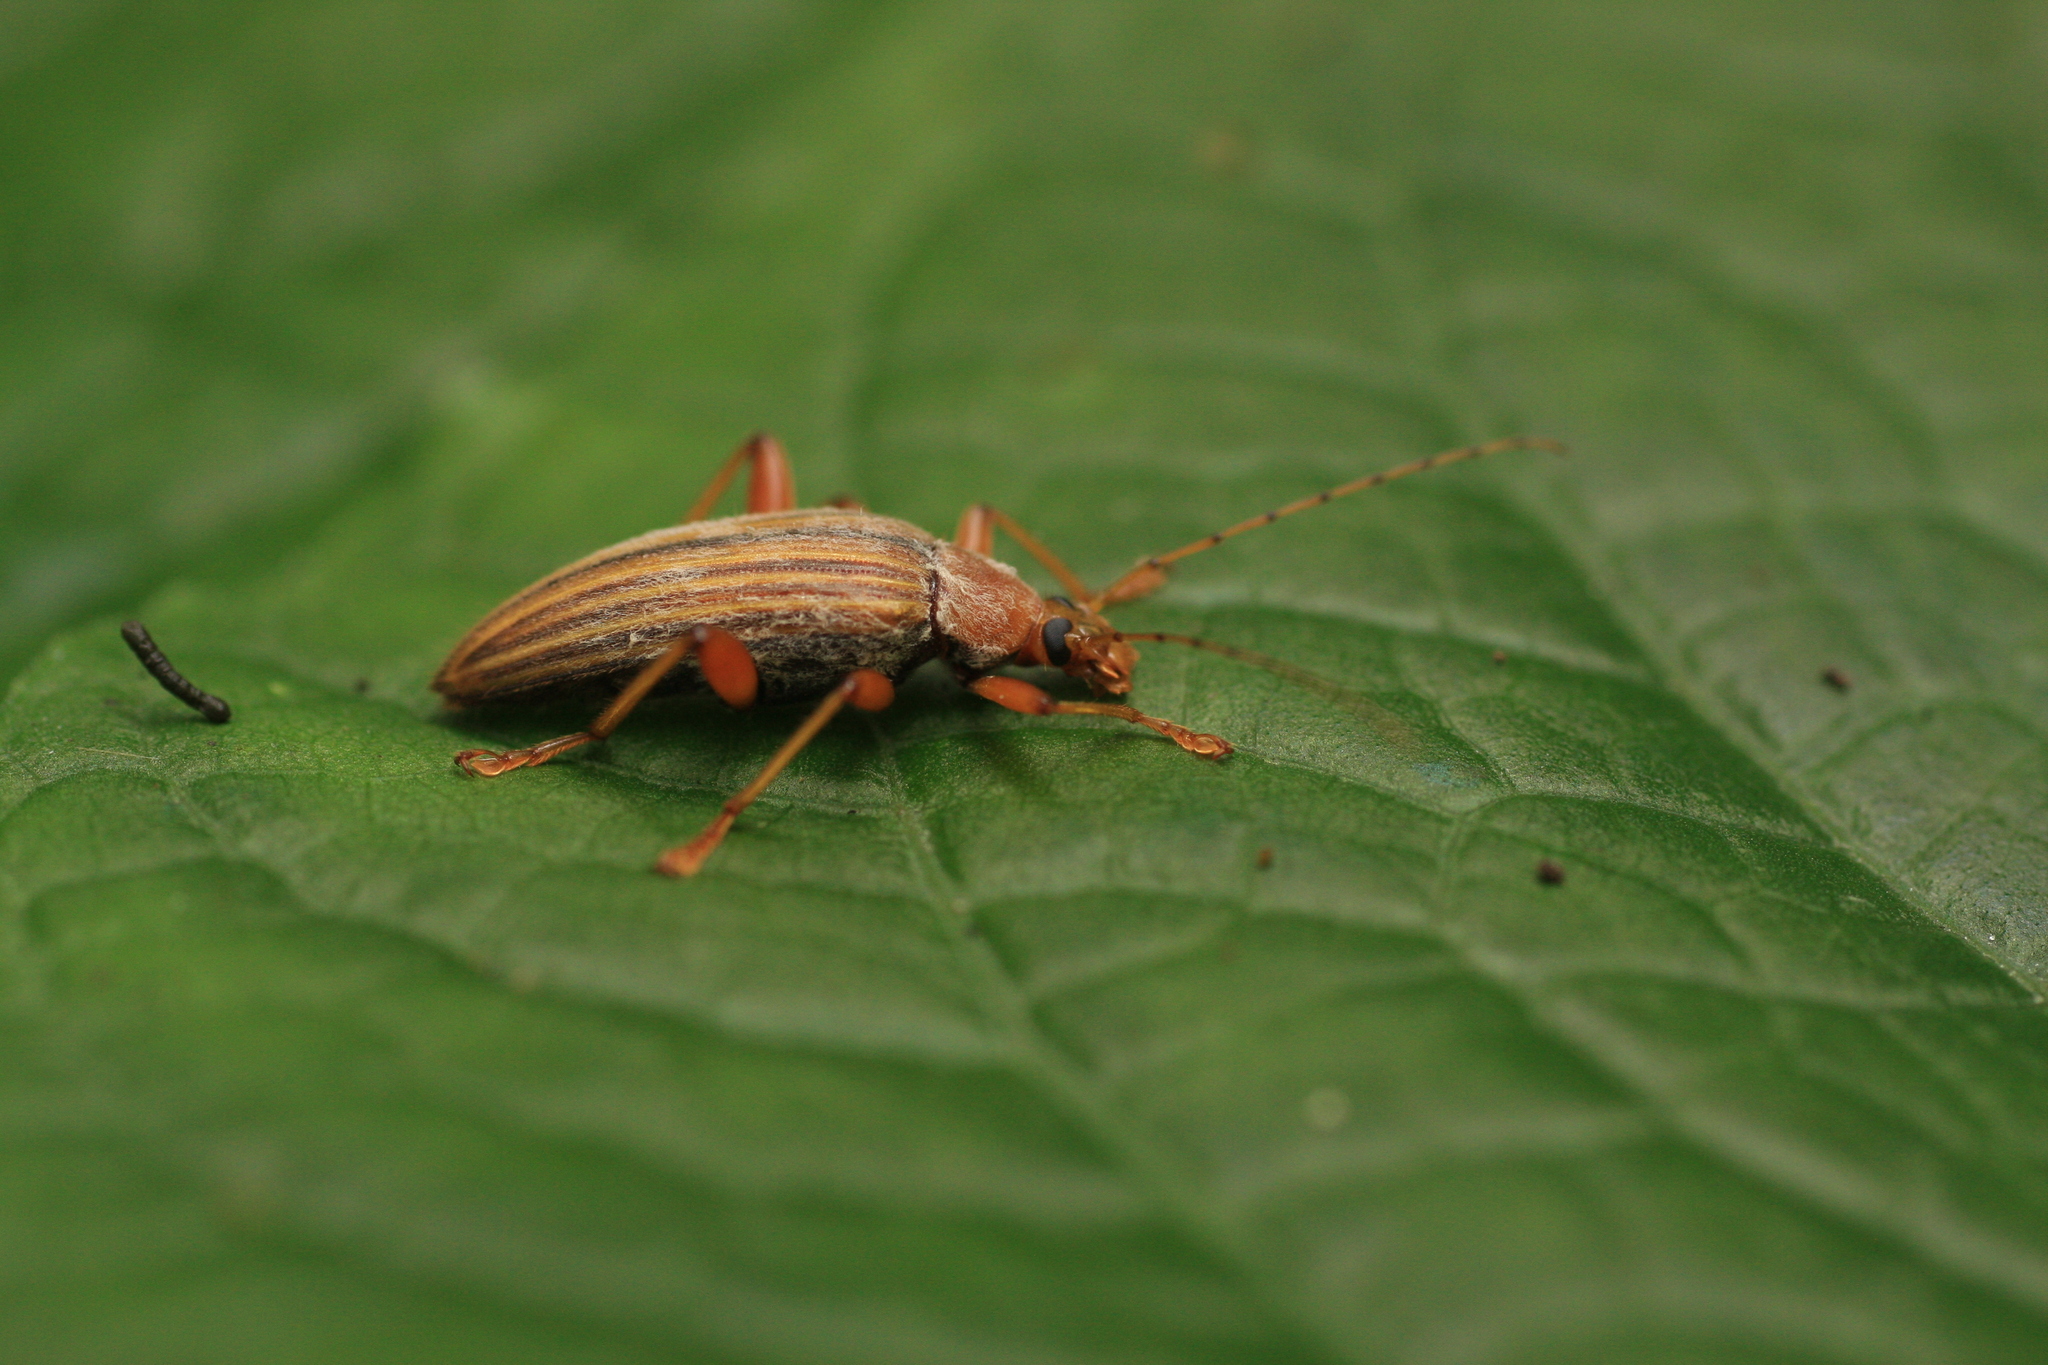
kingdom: Animalia
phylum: Arthropoda
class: Insecta
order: Coleoptera
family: Tenebrionidae
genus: Asticostena
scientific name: Asticostena
